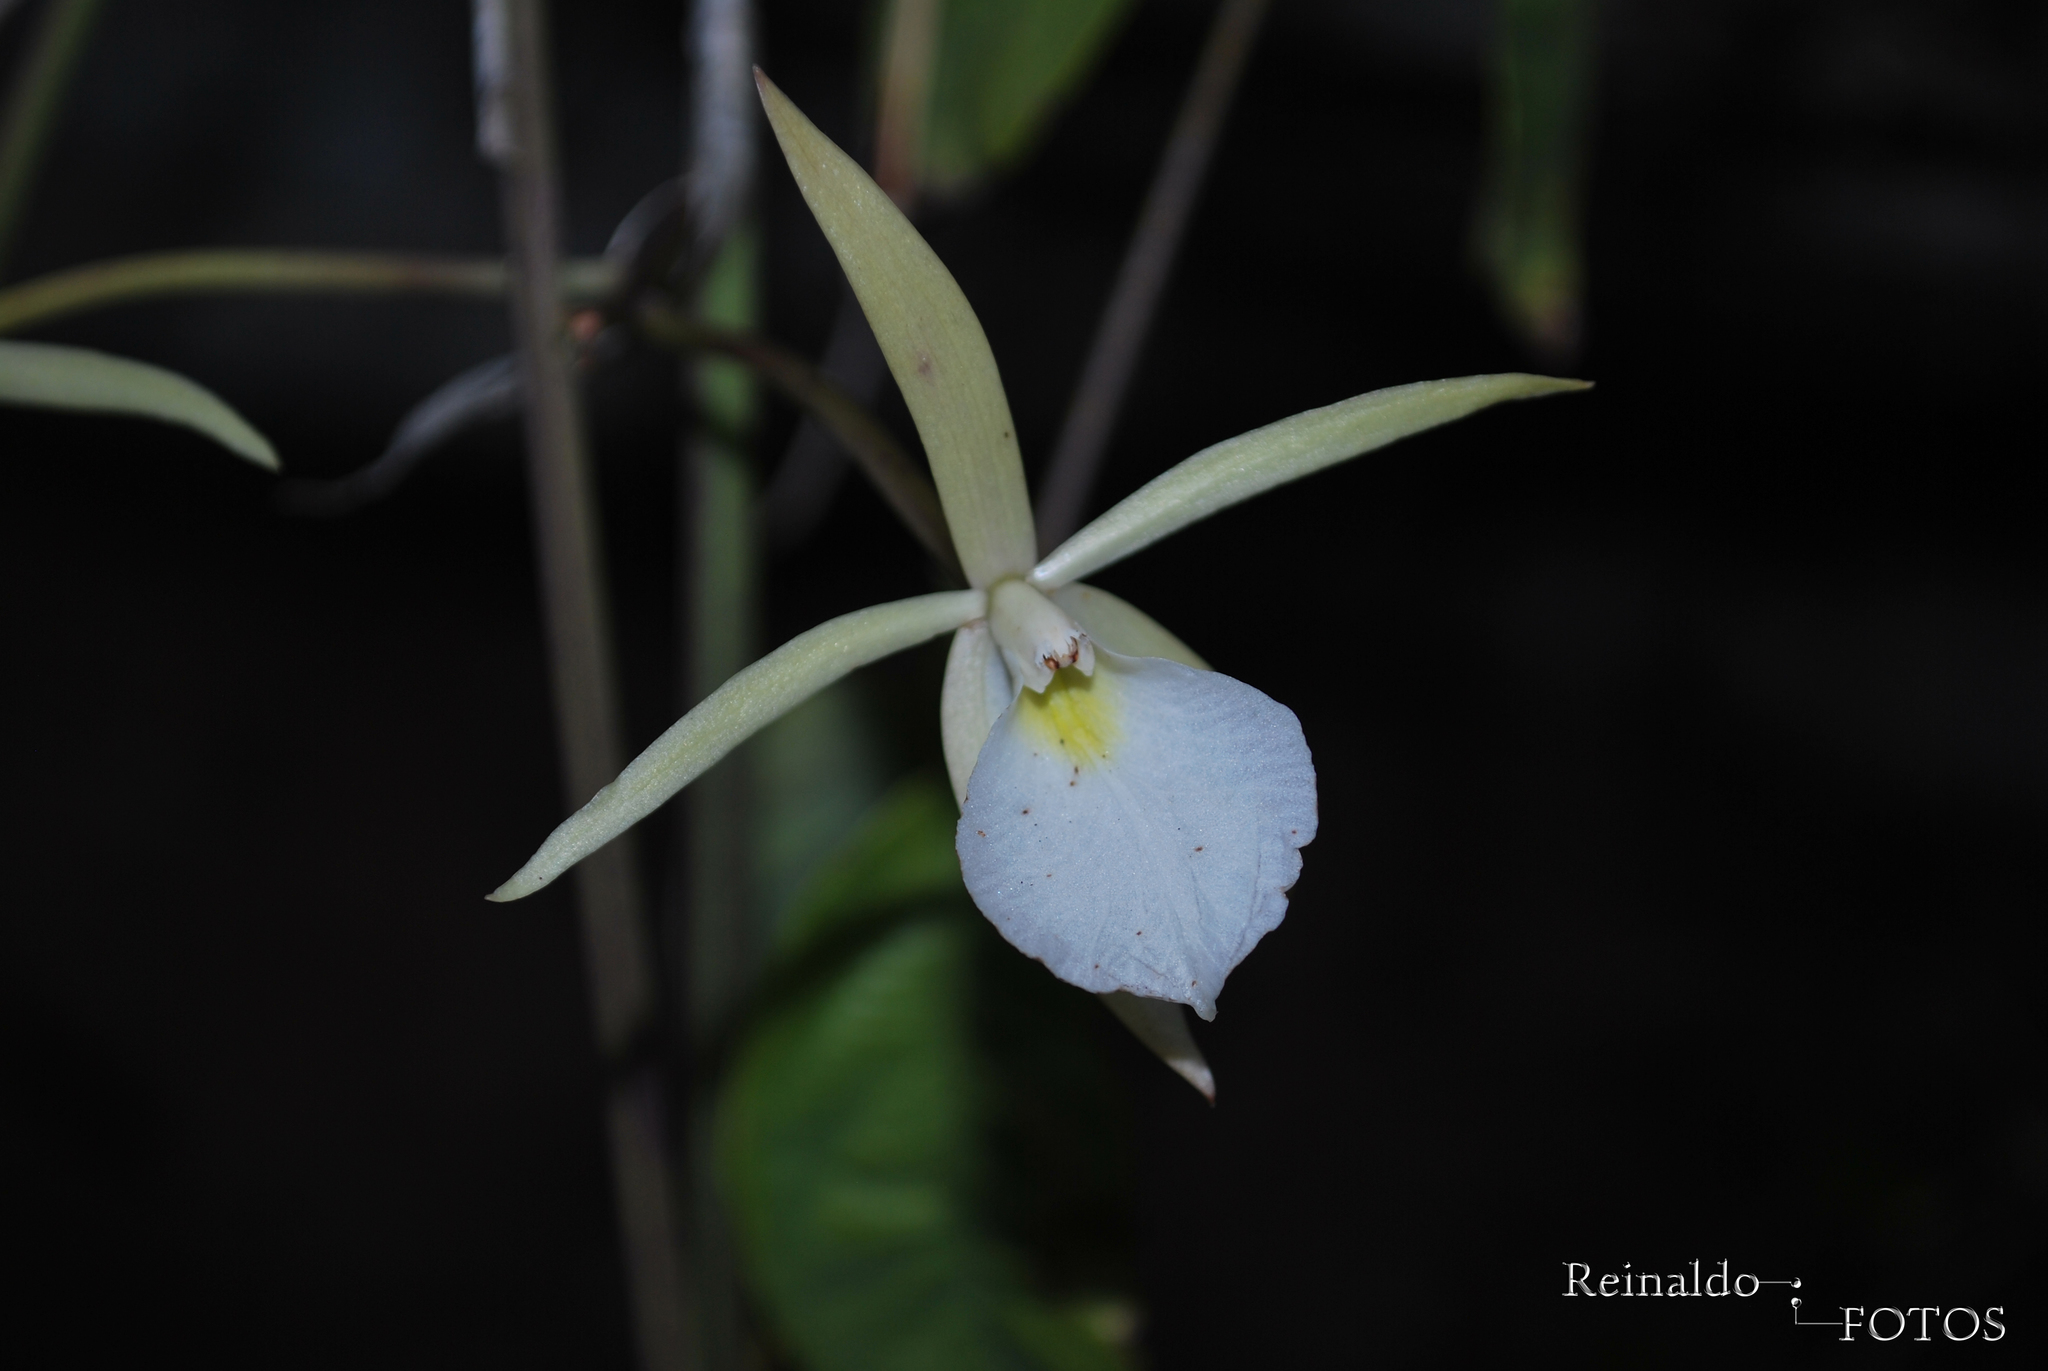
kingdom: Plantae
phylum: Tracheophyta
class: Liliopsida
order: Asparagales
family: Orchidaceae
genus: Brassavola
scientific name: Brassavola tuberculata
